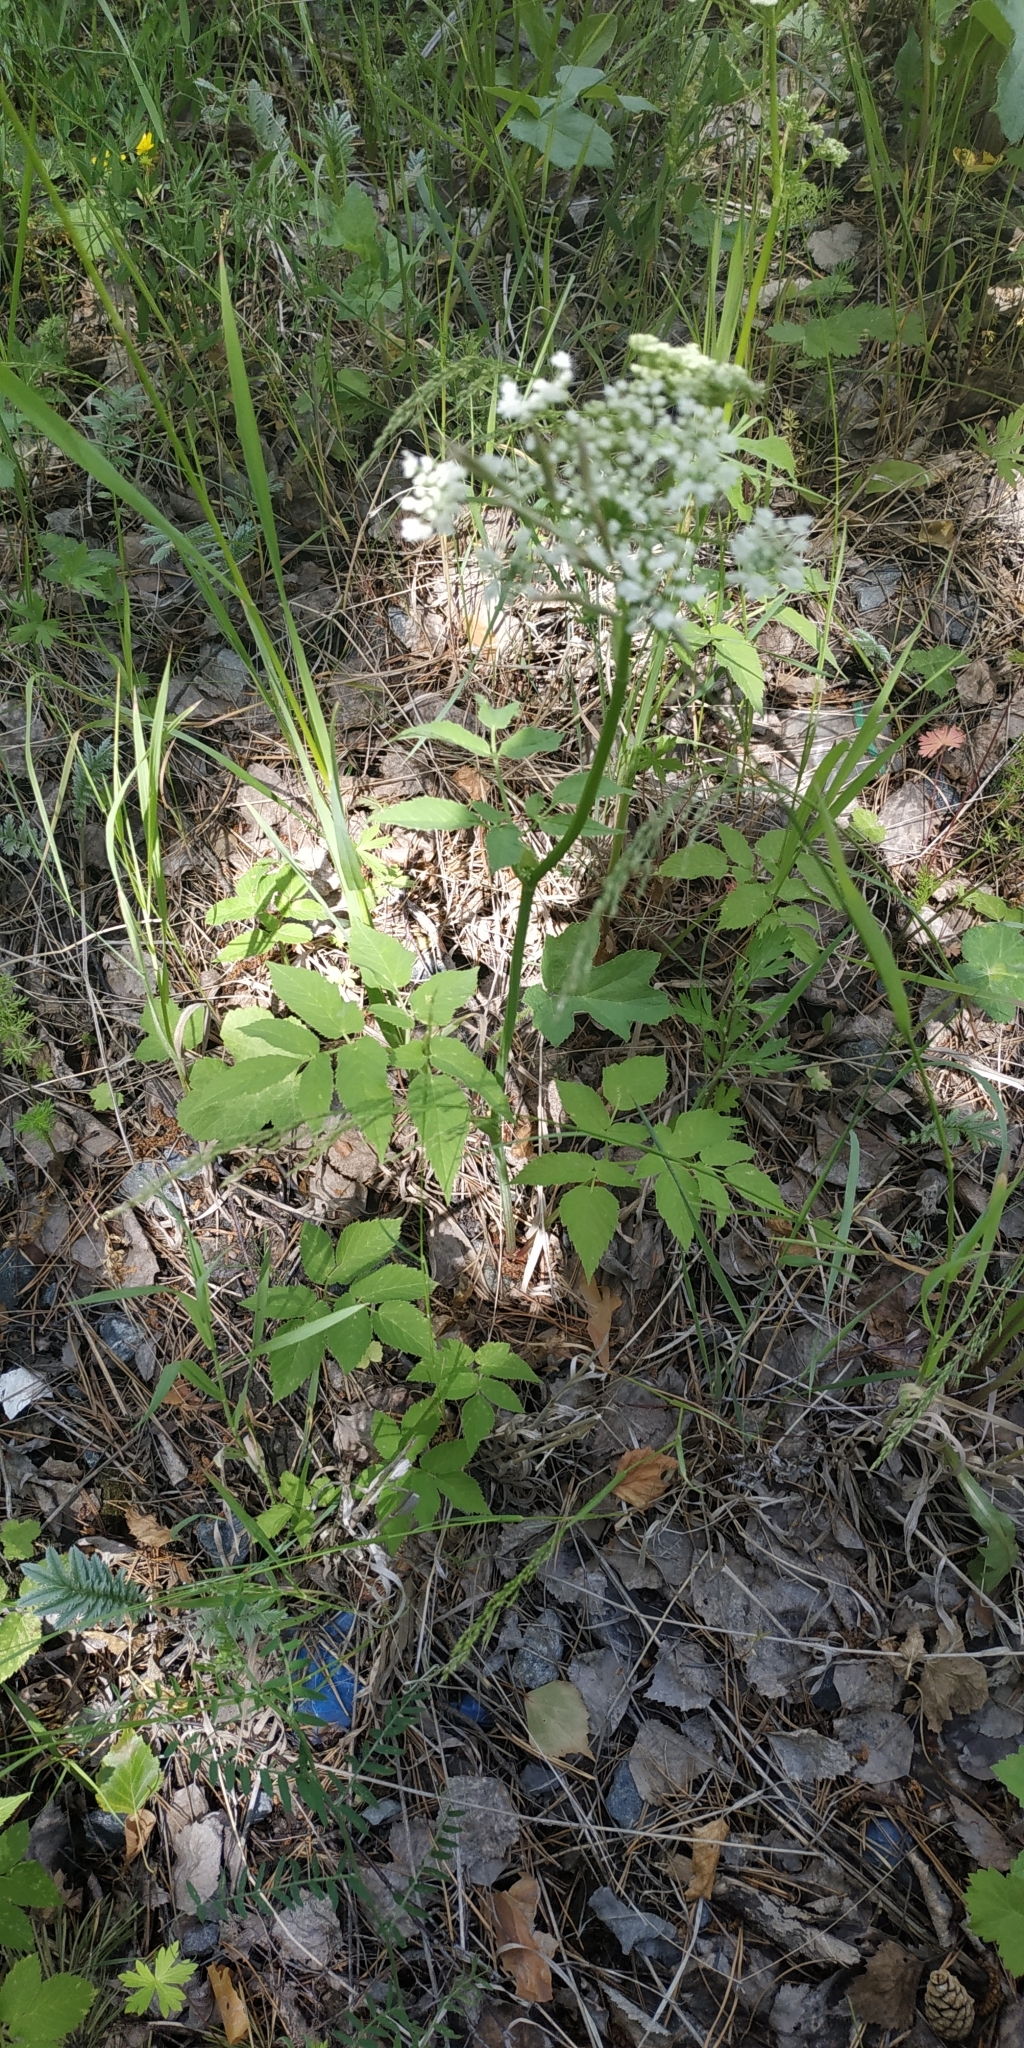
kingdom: Plantae
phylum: Tracheophyta
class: Magnoliopsida
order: Apiales
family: Apiaceae
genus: Aegopodium
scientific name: Aegopodium podagraria
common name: Ground-elder
